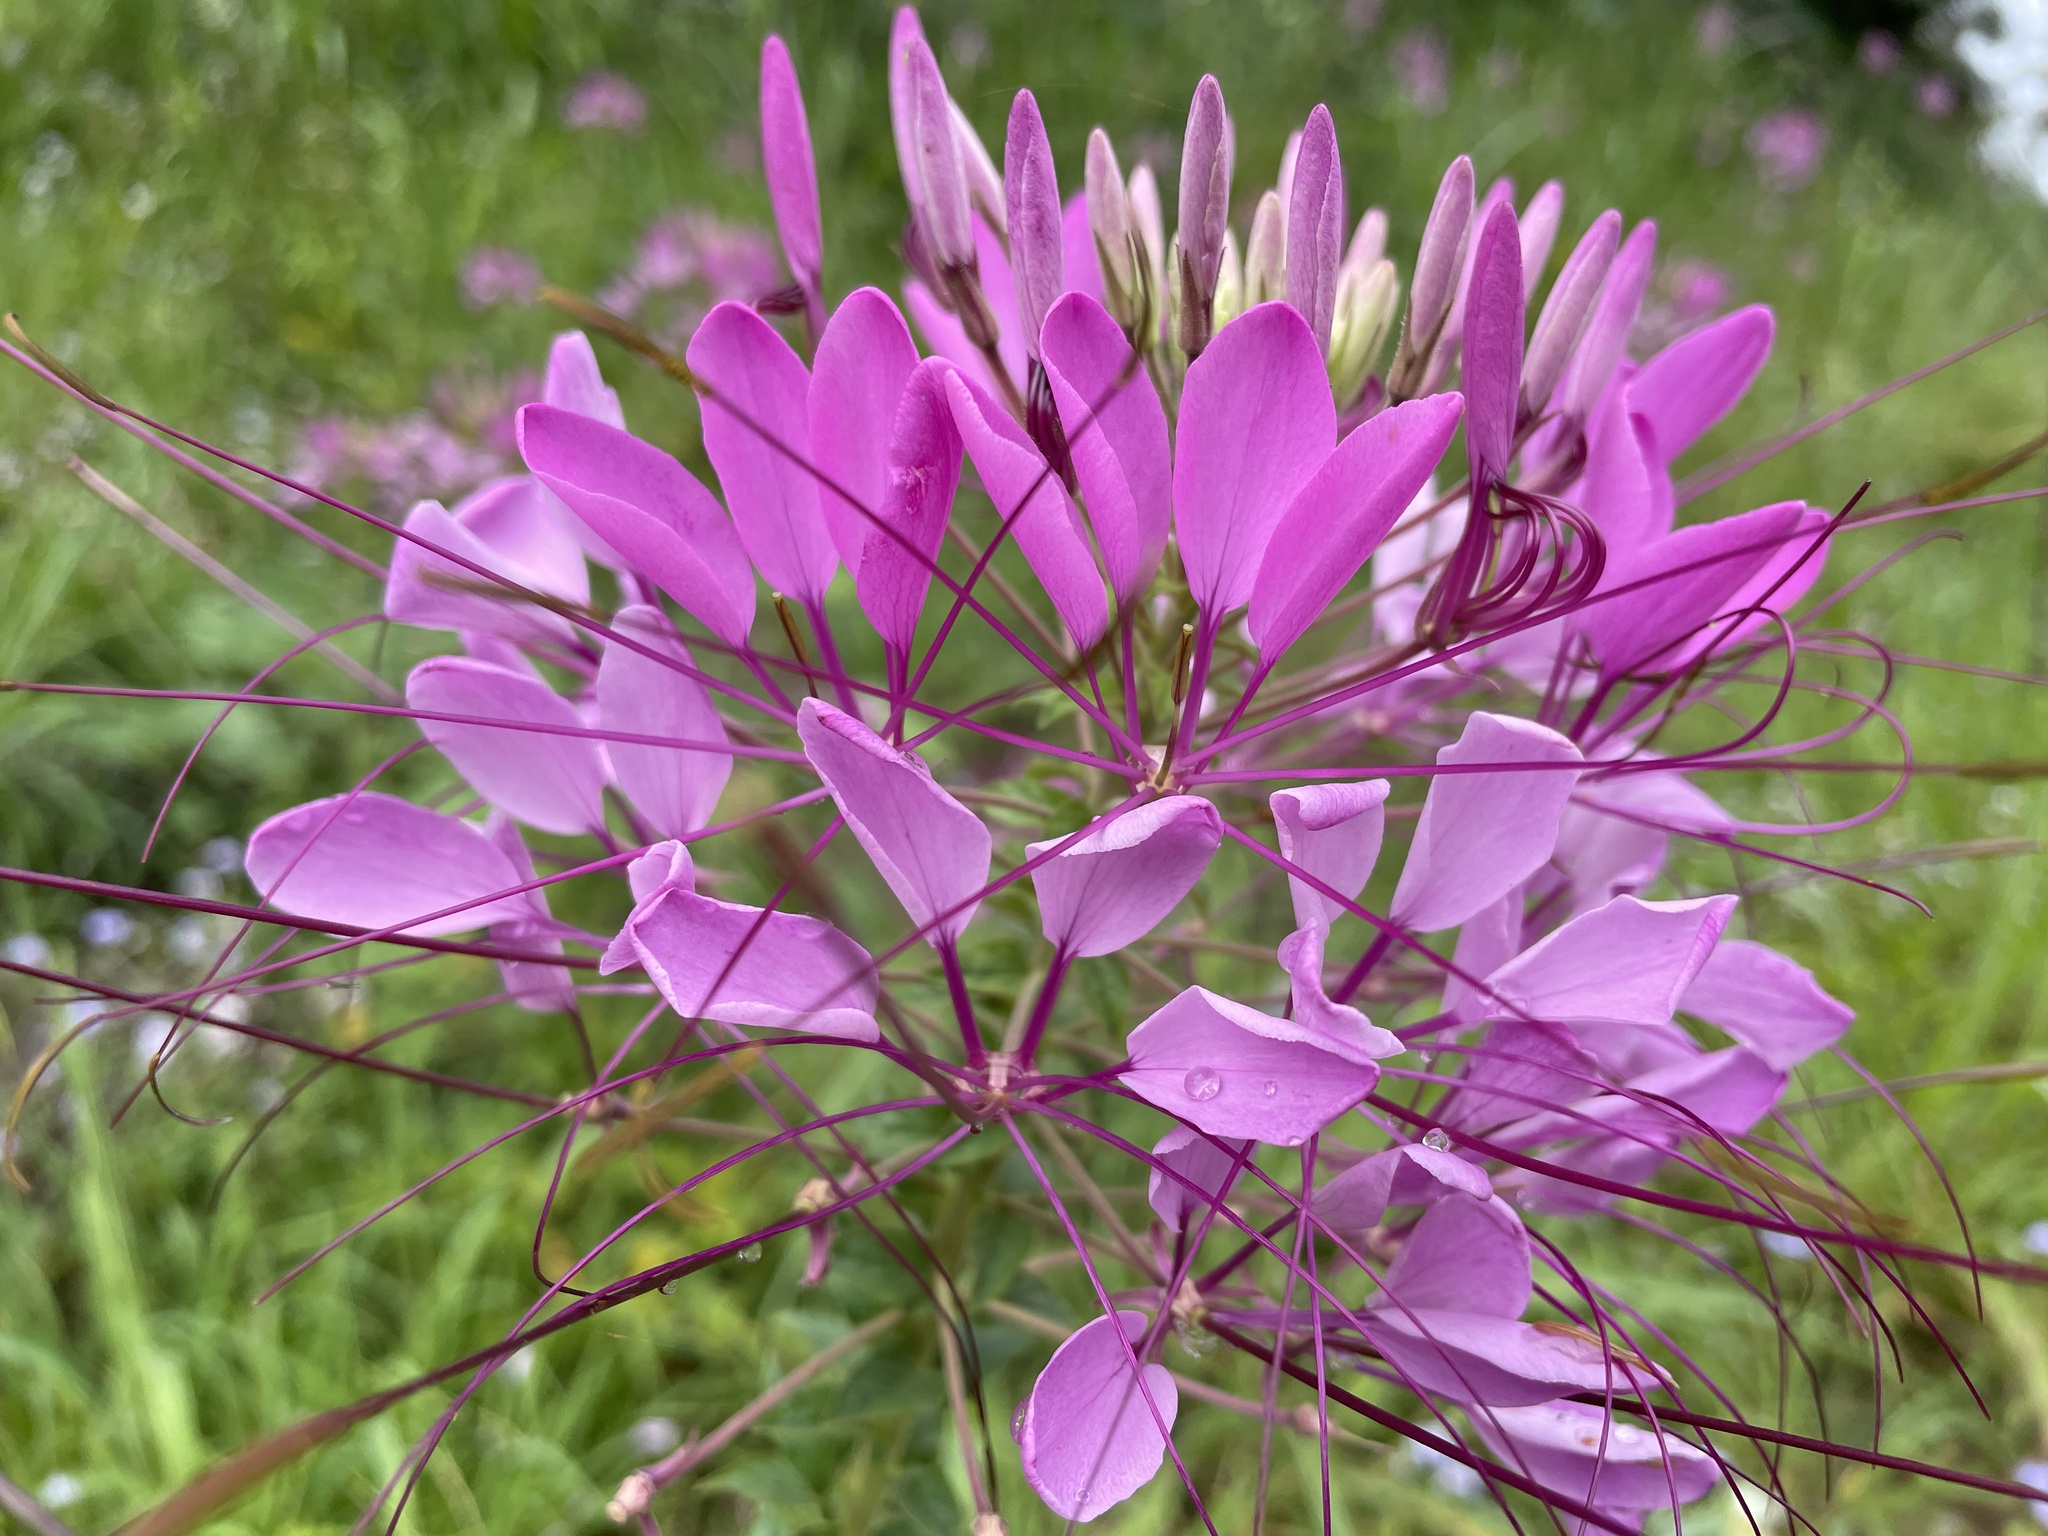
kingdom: Plantae
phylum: Tracheophyta
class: Magnoliopsida
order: Brassicales
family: Cleomaceae
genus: Tarenaya
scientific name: Tarenaya houtteana
